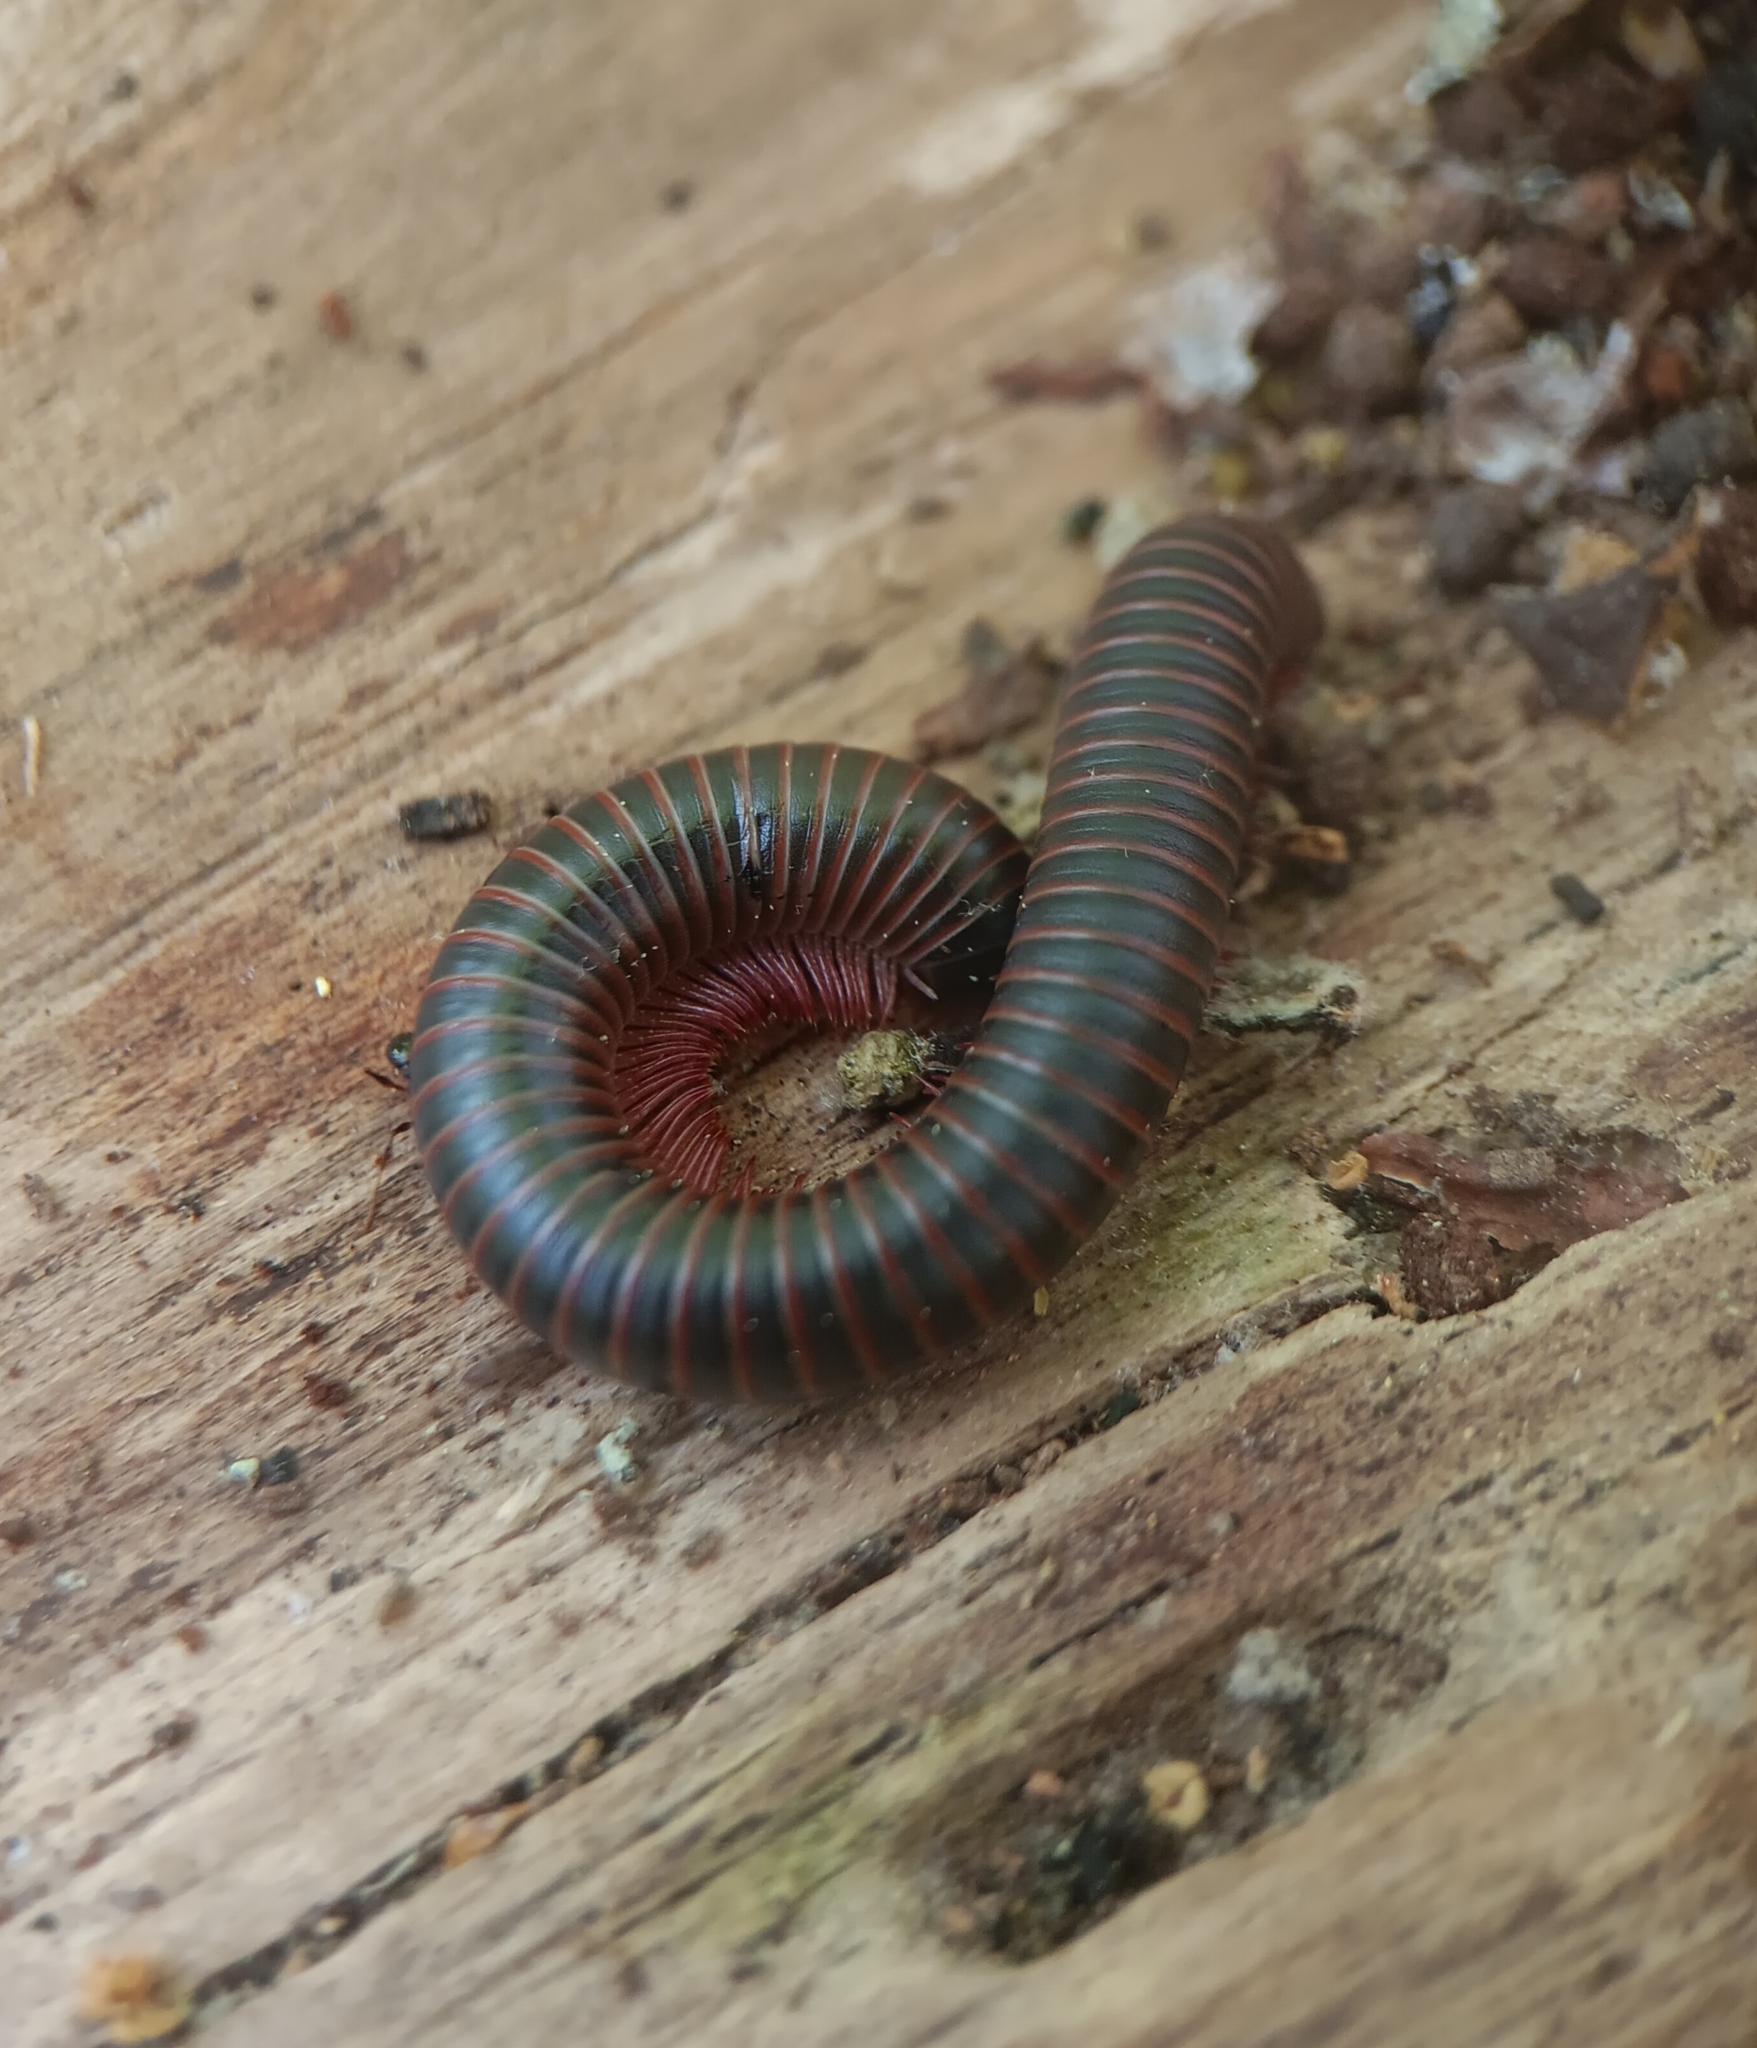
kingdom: Animalia
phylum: Arthropoda
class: Diplopoda
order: Spirobolida
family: Spirobolidae
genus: Narceus
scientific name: Narceus
